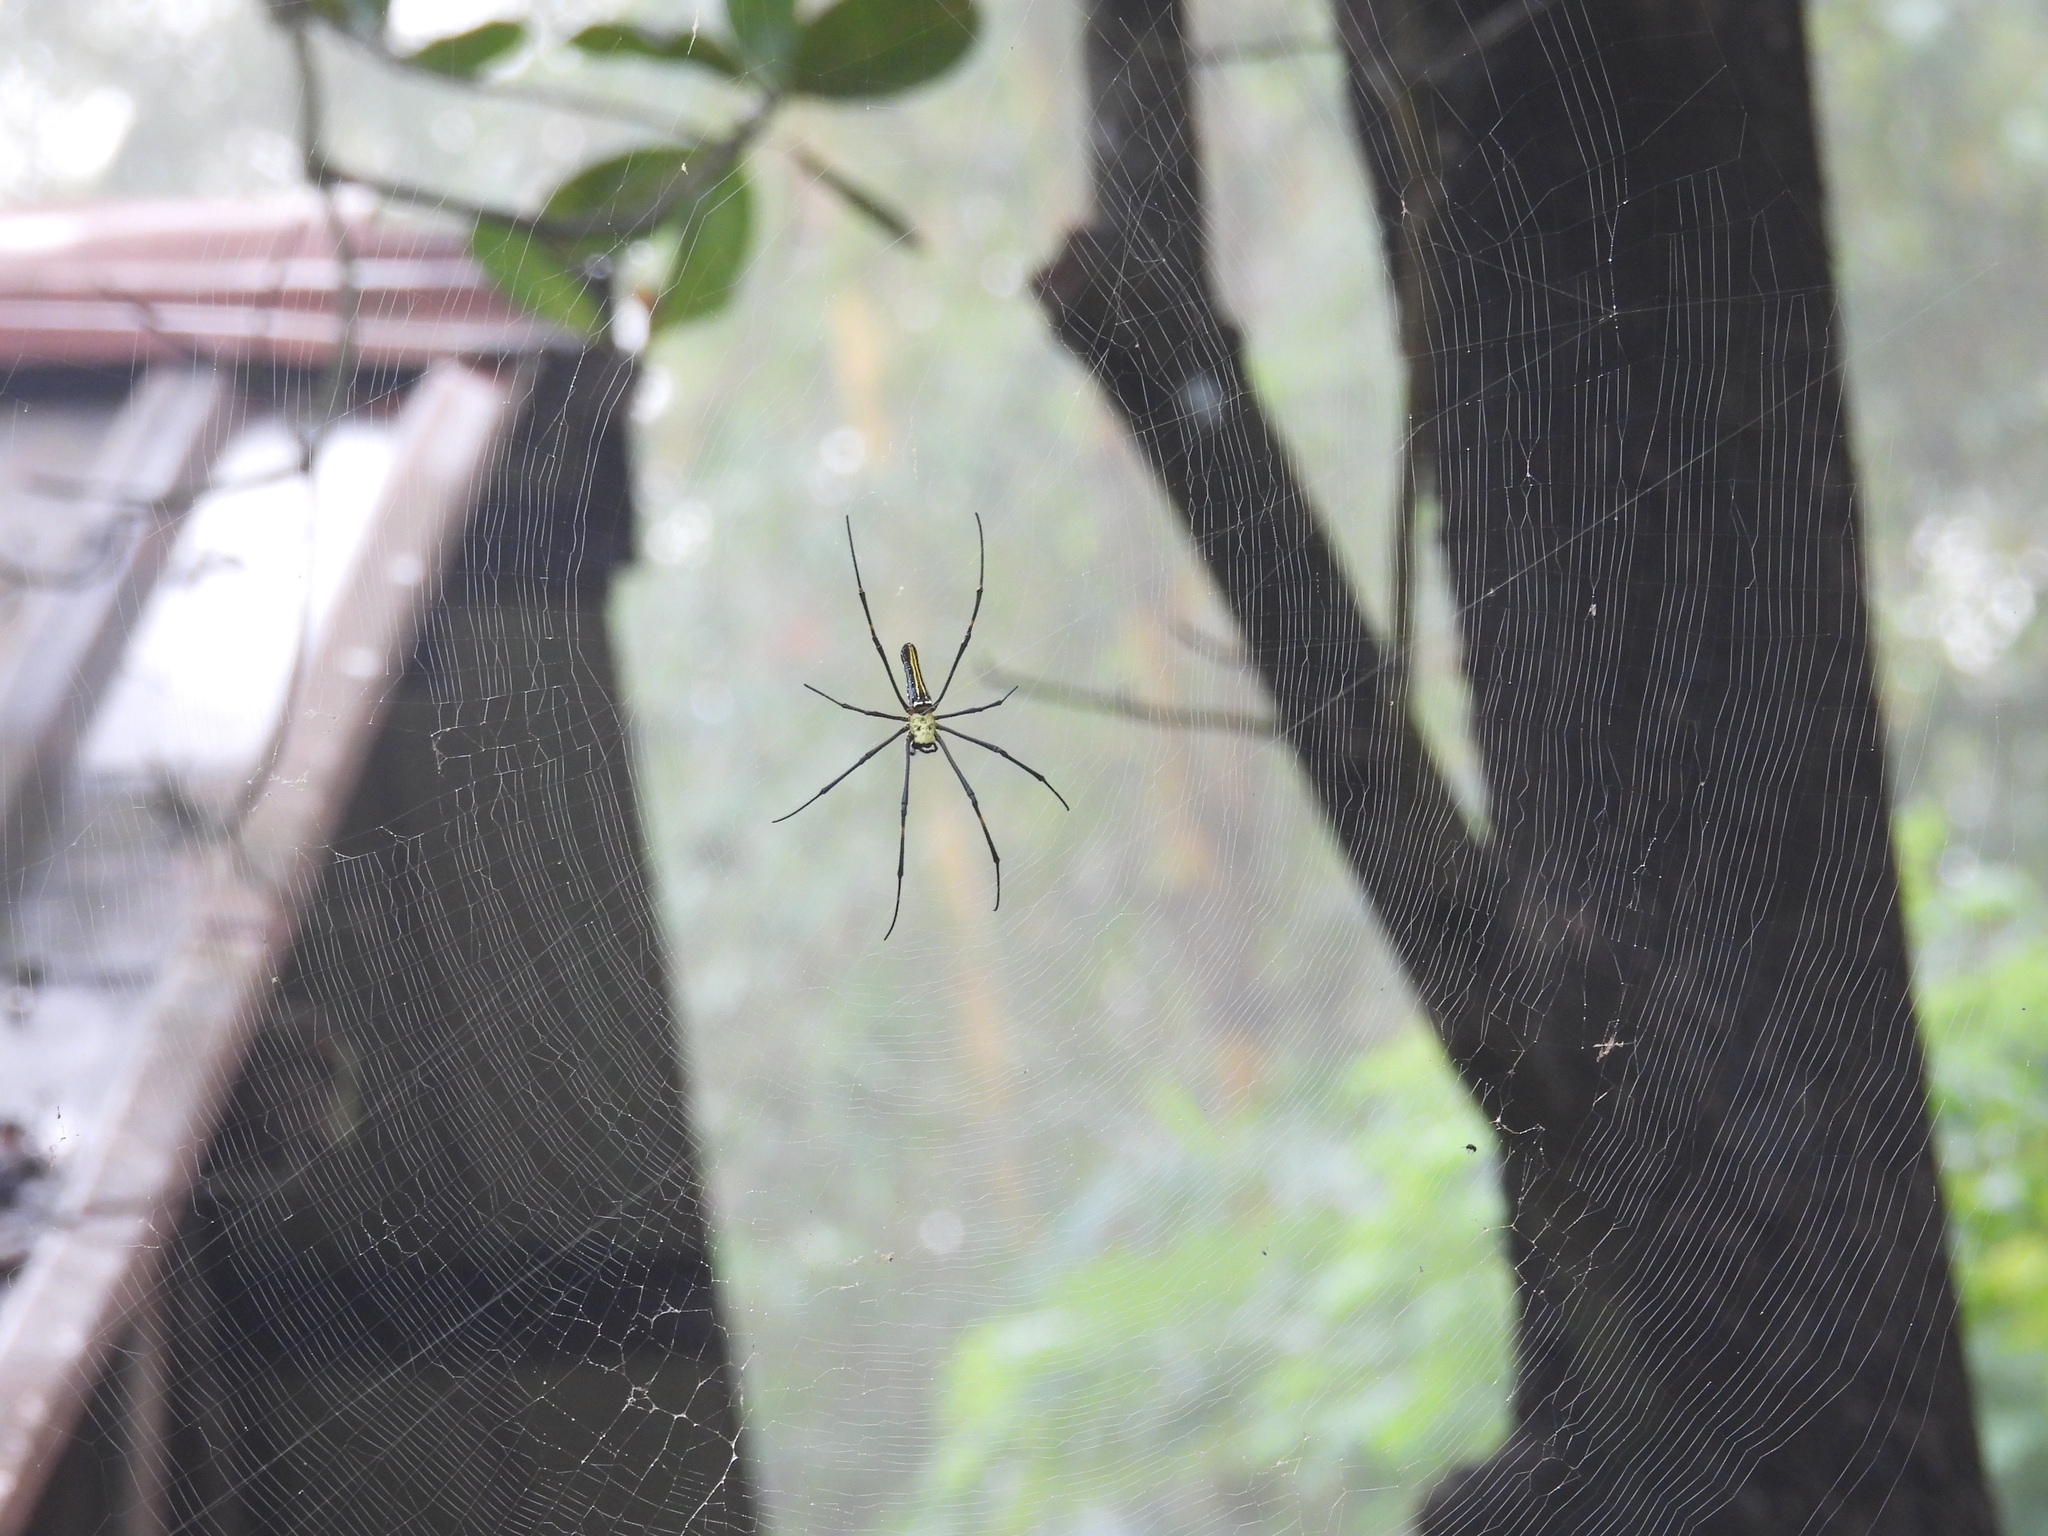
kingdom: Animalia
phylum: Arthropoda
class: Arachnida
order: Araneae
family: Araneidae
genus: Nephila
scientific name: Nephila pilipes
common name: Giant golden orb weaver
